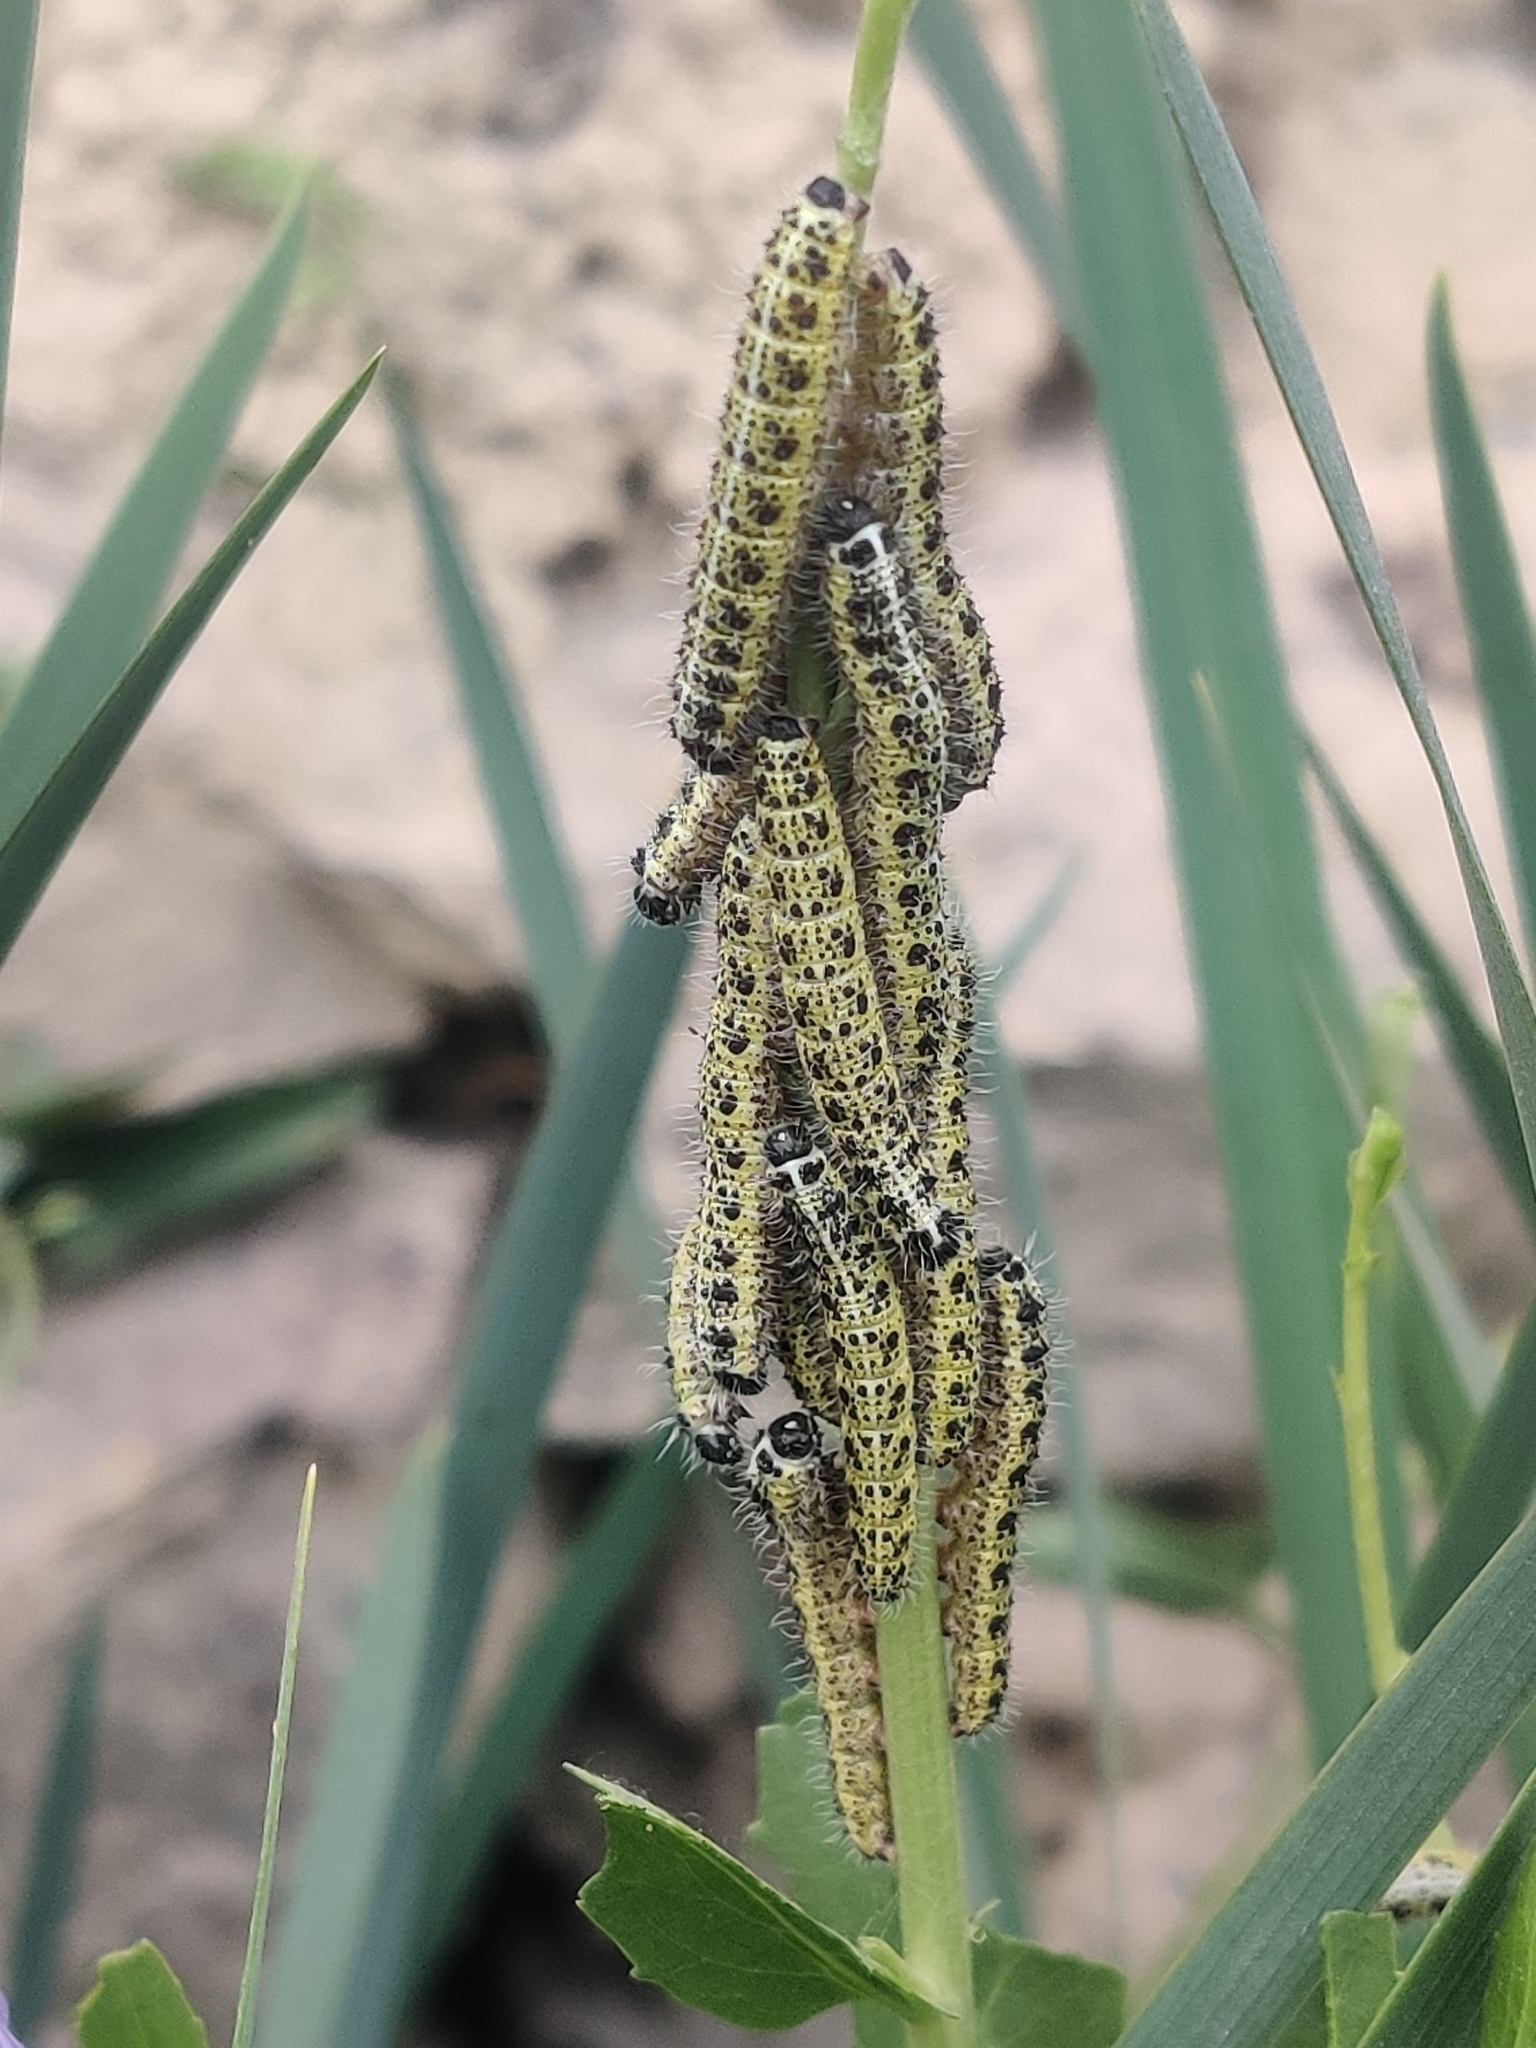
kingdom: Animalia
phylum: Arthropoda
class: Insecta
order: Lepidoptera
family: Pieridae
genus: Pieris
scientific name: Pieris brassicae
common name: Large white
